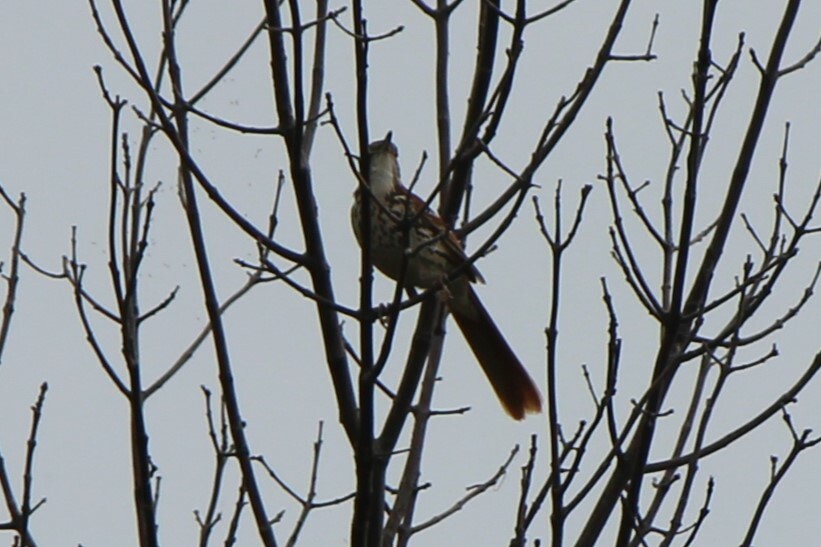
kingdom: Animalia
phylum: Chordata
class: Aves
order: Passeriformes
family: Mimidae
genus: Toxostoma
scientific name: Toxostoma rufum
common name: Brown thrasher
